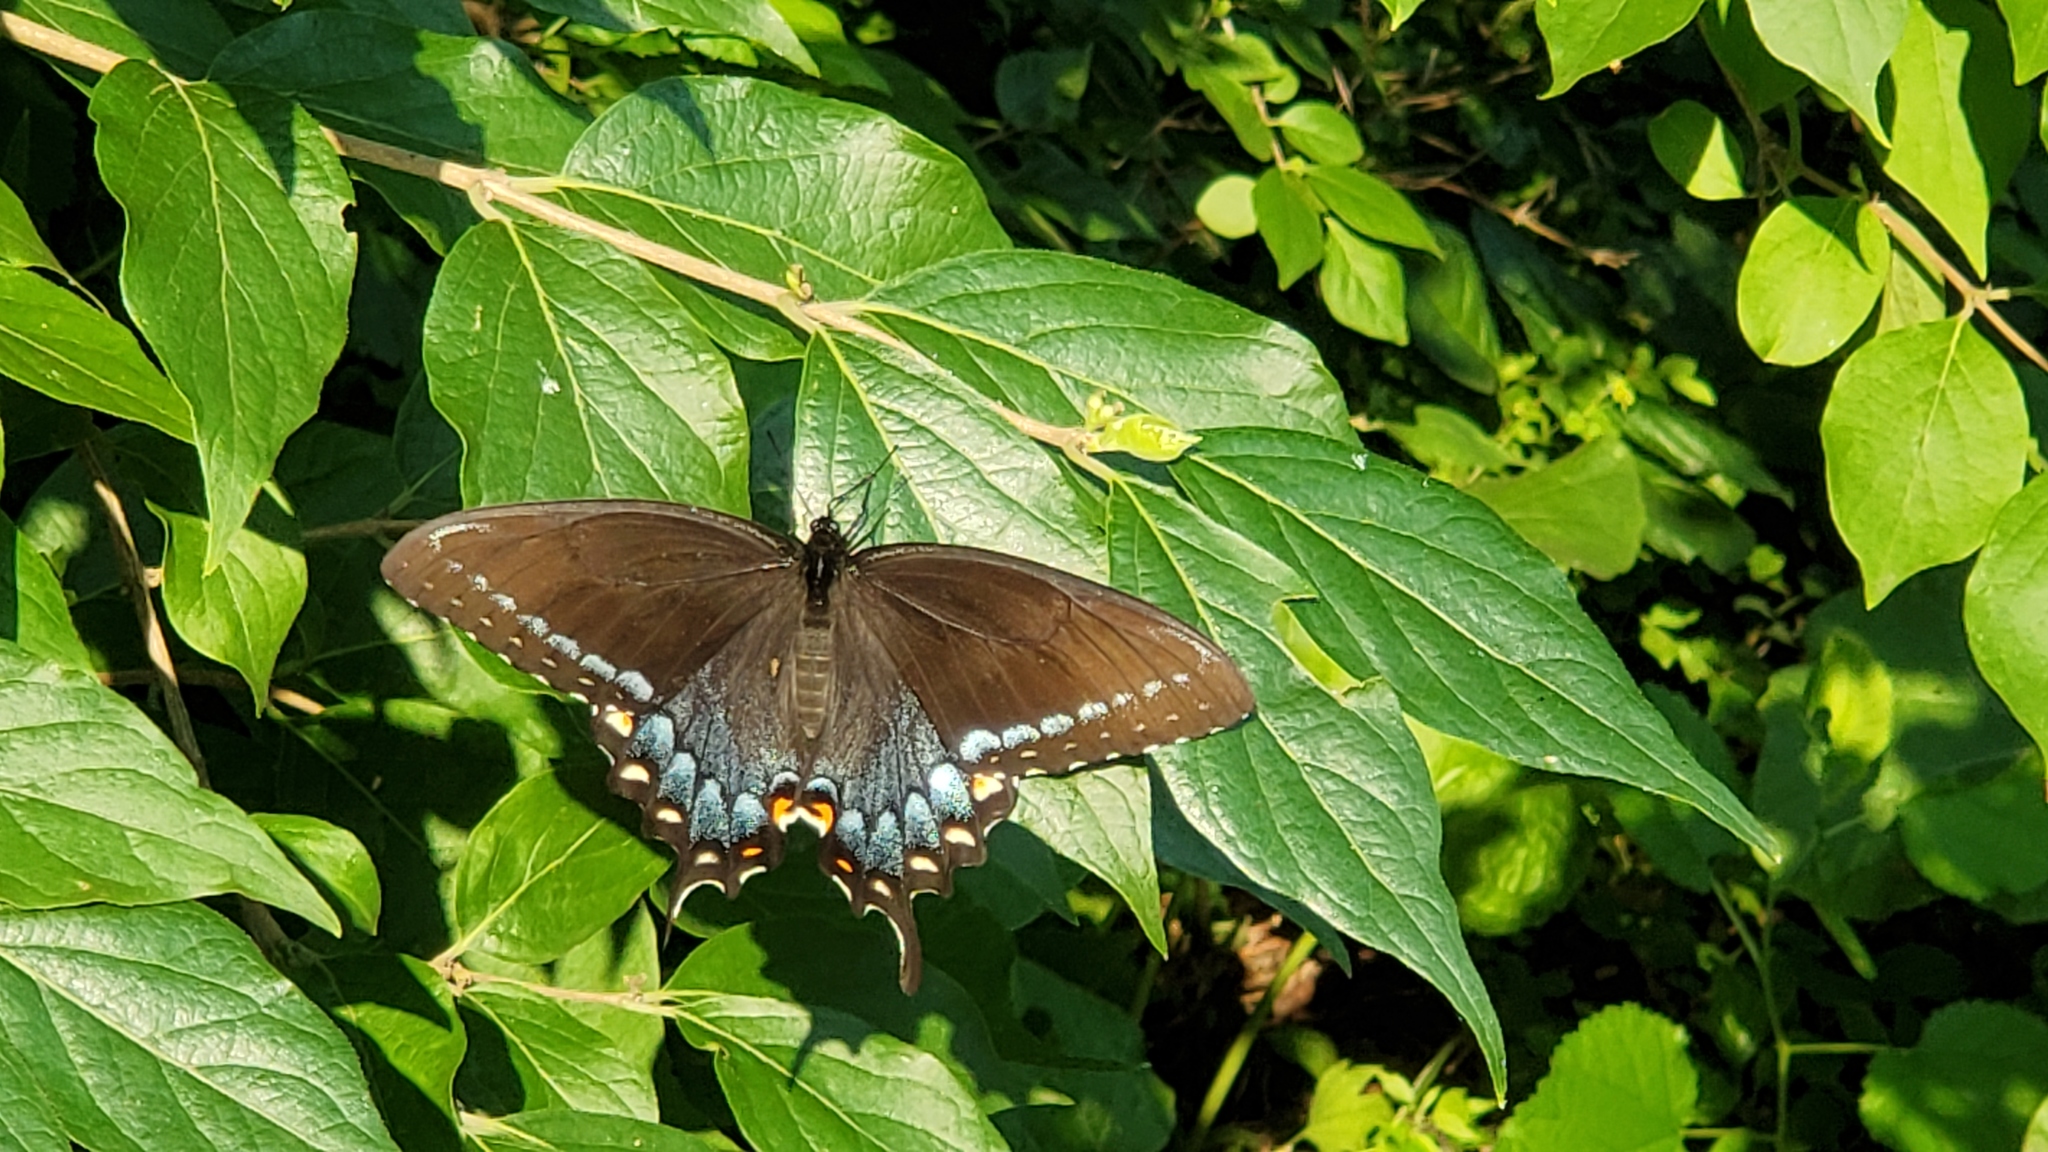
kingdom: Animalia
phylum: Arthropoda
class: Insecta
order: Lepidoptera
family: Papilionidae
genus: Papilio
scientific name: Papilio glaucus
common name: Tiger swallowtail
